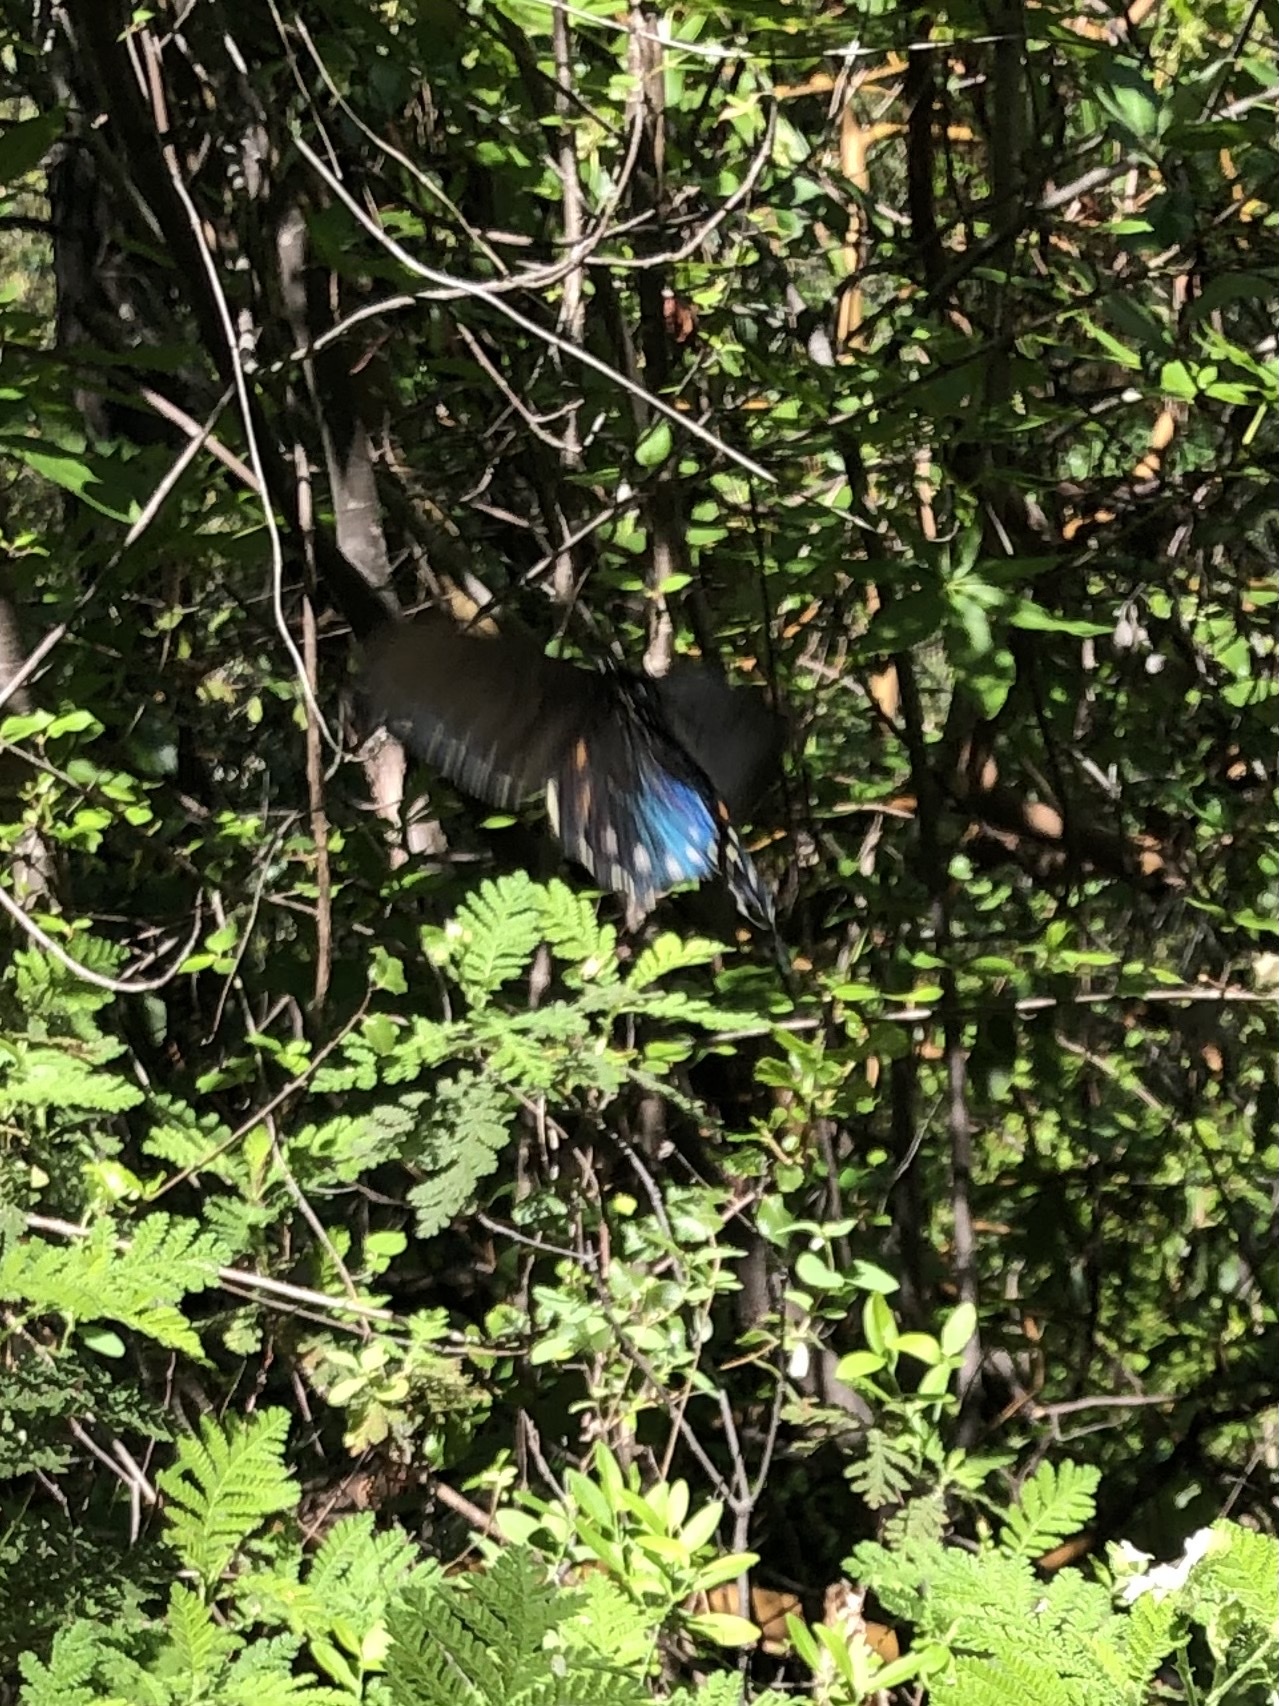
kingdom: Animalia
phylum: Arthropoda
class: Insecta
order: Lepidoptera
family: Papilionidae
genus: Battus
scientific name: Battus philenor
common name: Pipevine swallowtail
